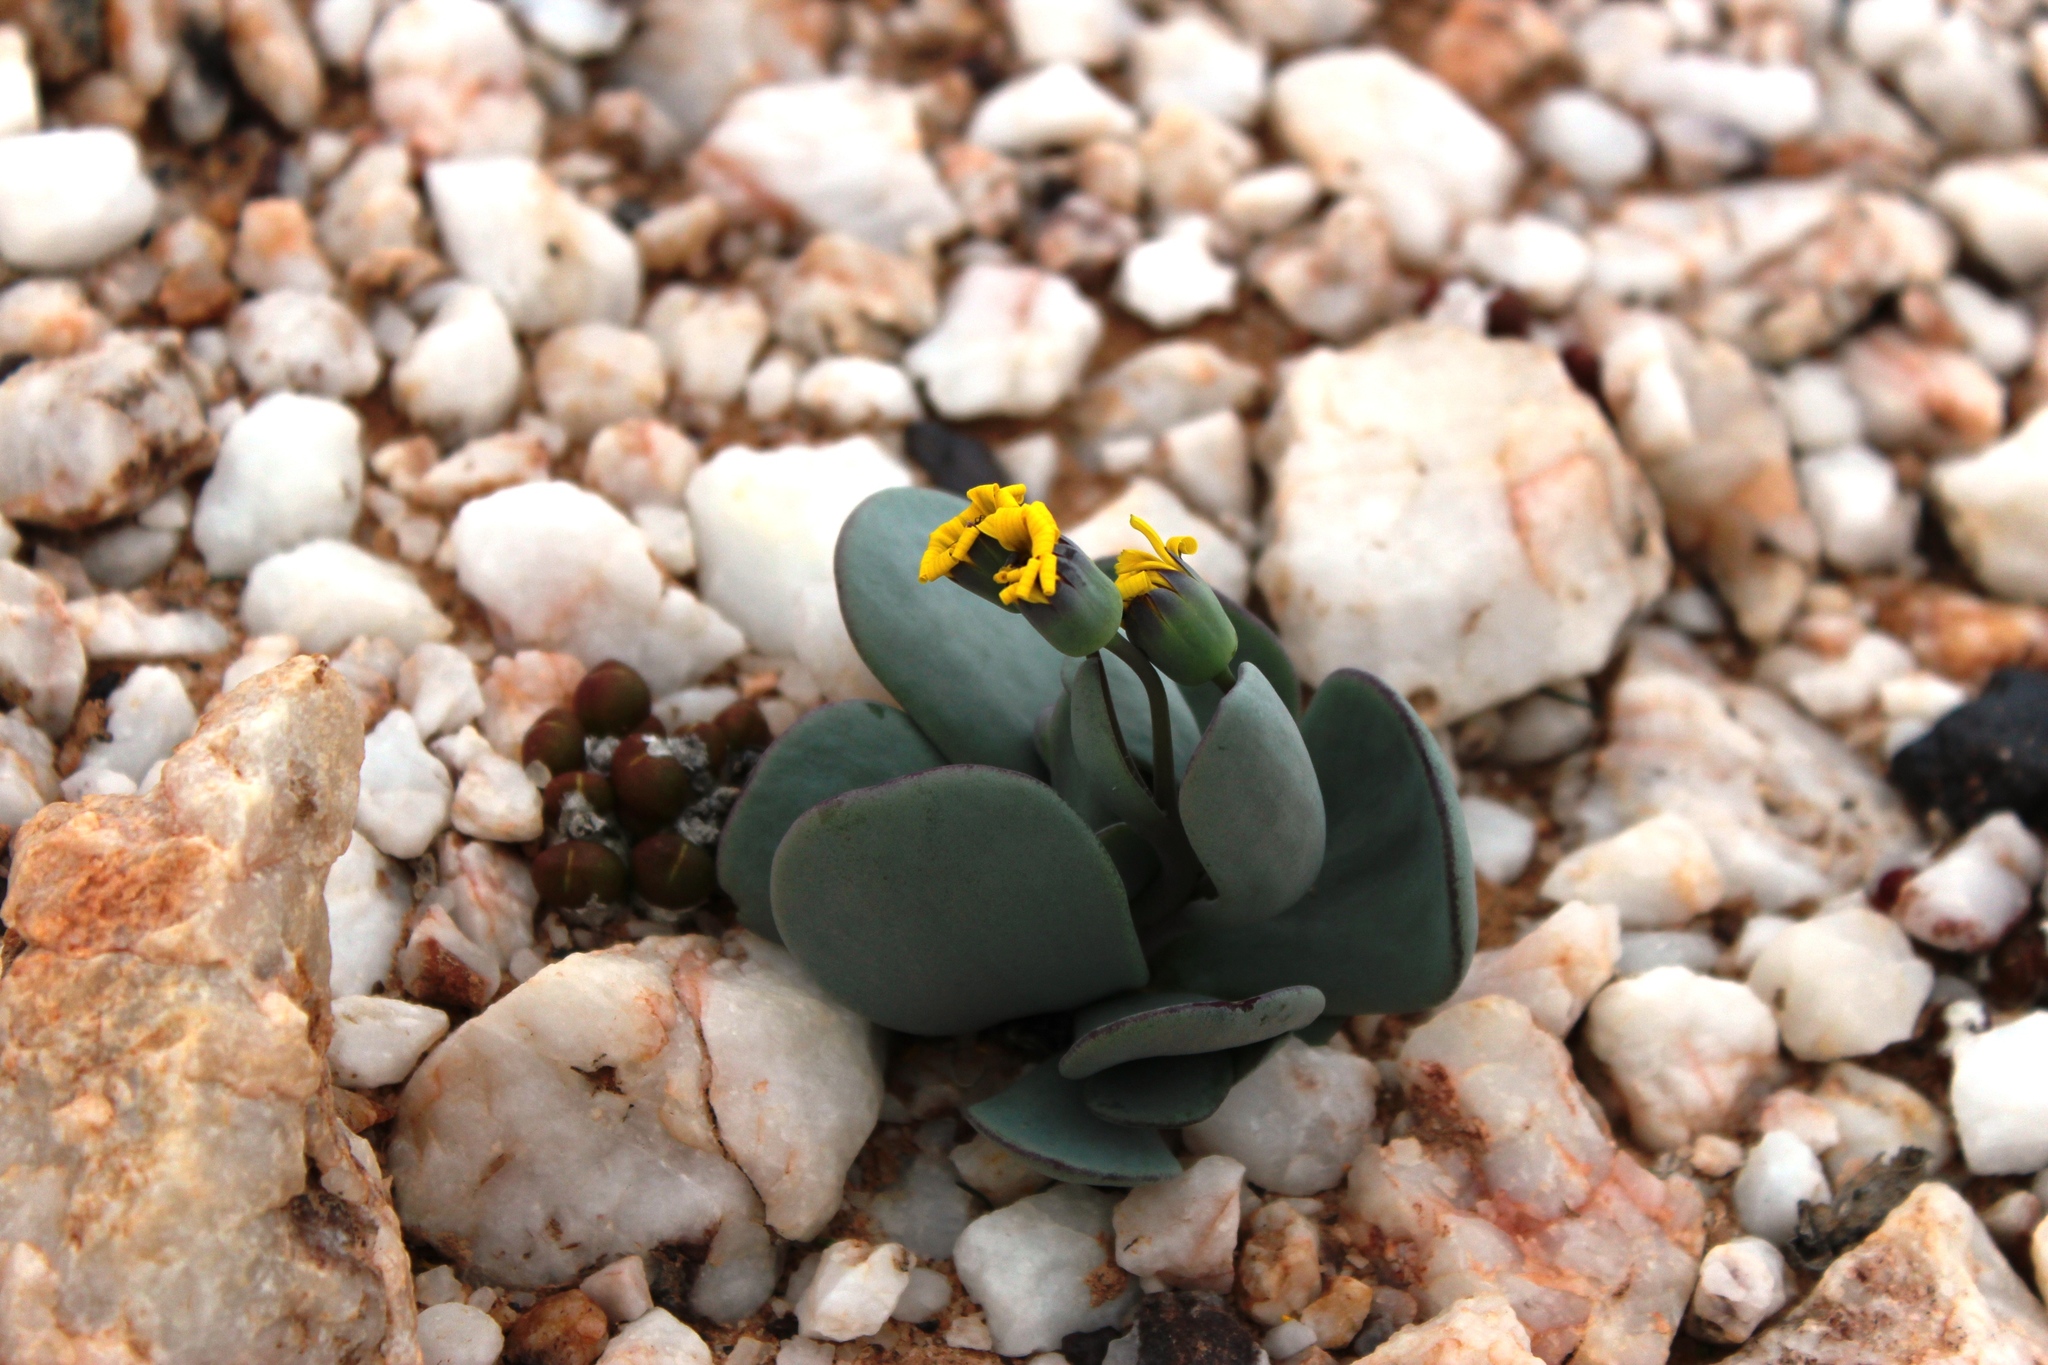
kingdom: Plantae
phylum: Tracheophyta
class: Magnoliopsida
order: Asterales
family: Asteraceae
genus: Othonna
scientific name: Othonna intermedia
